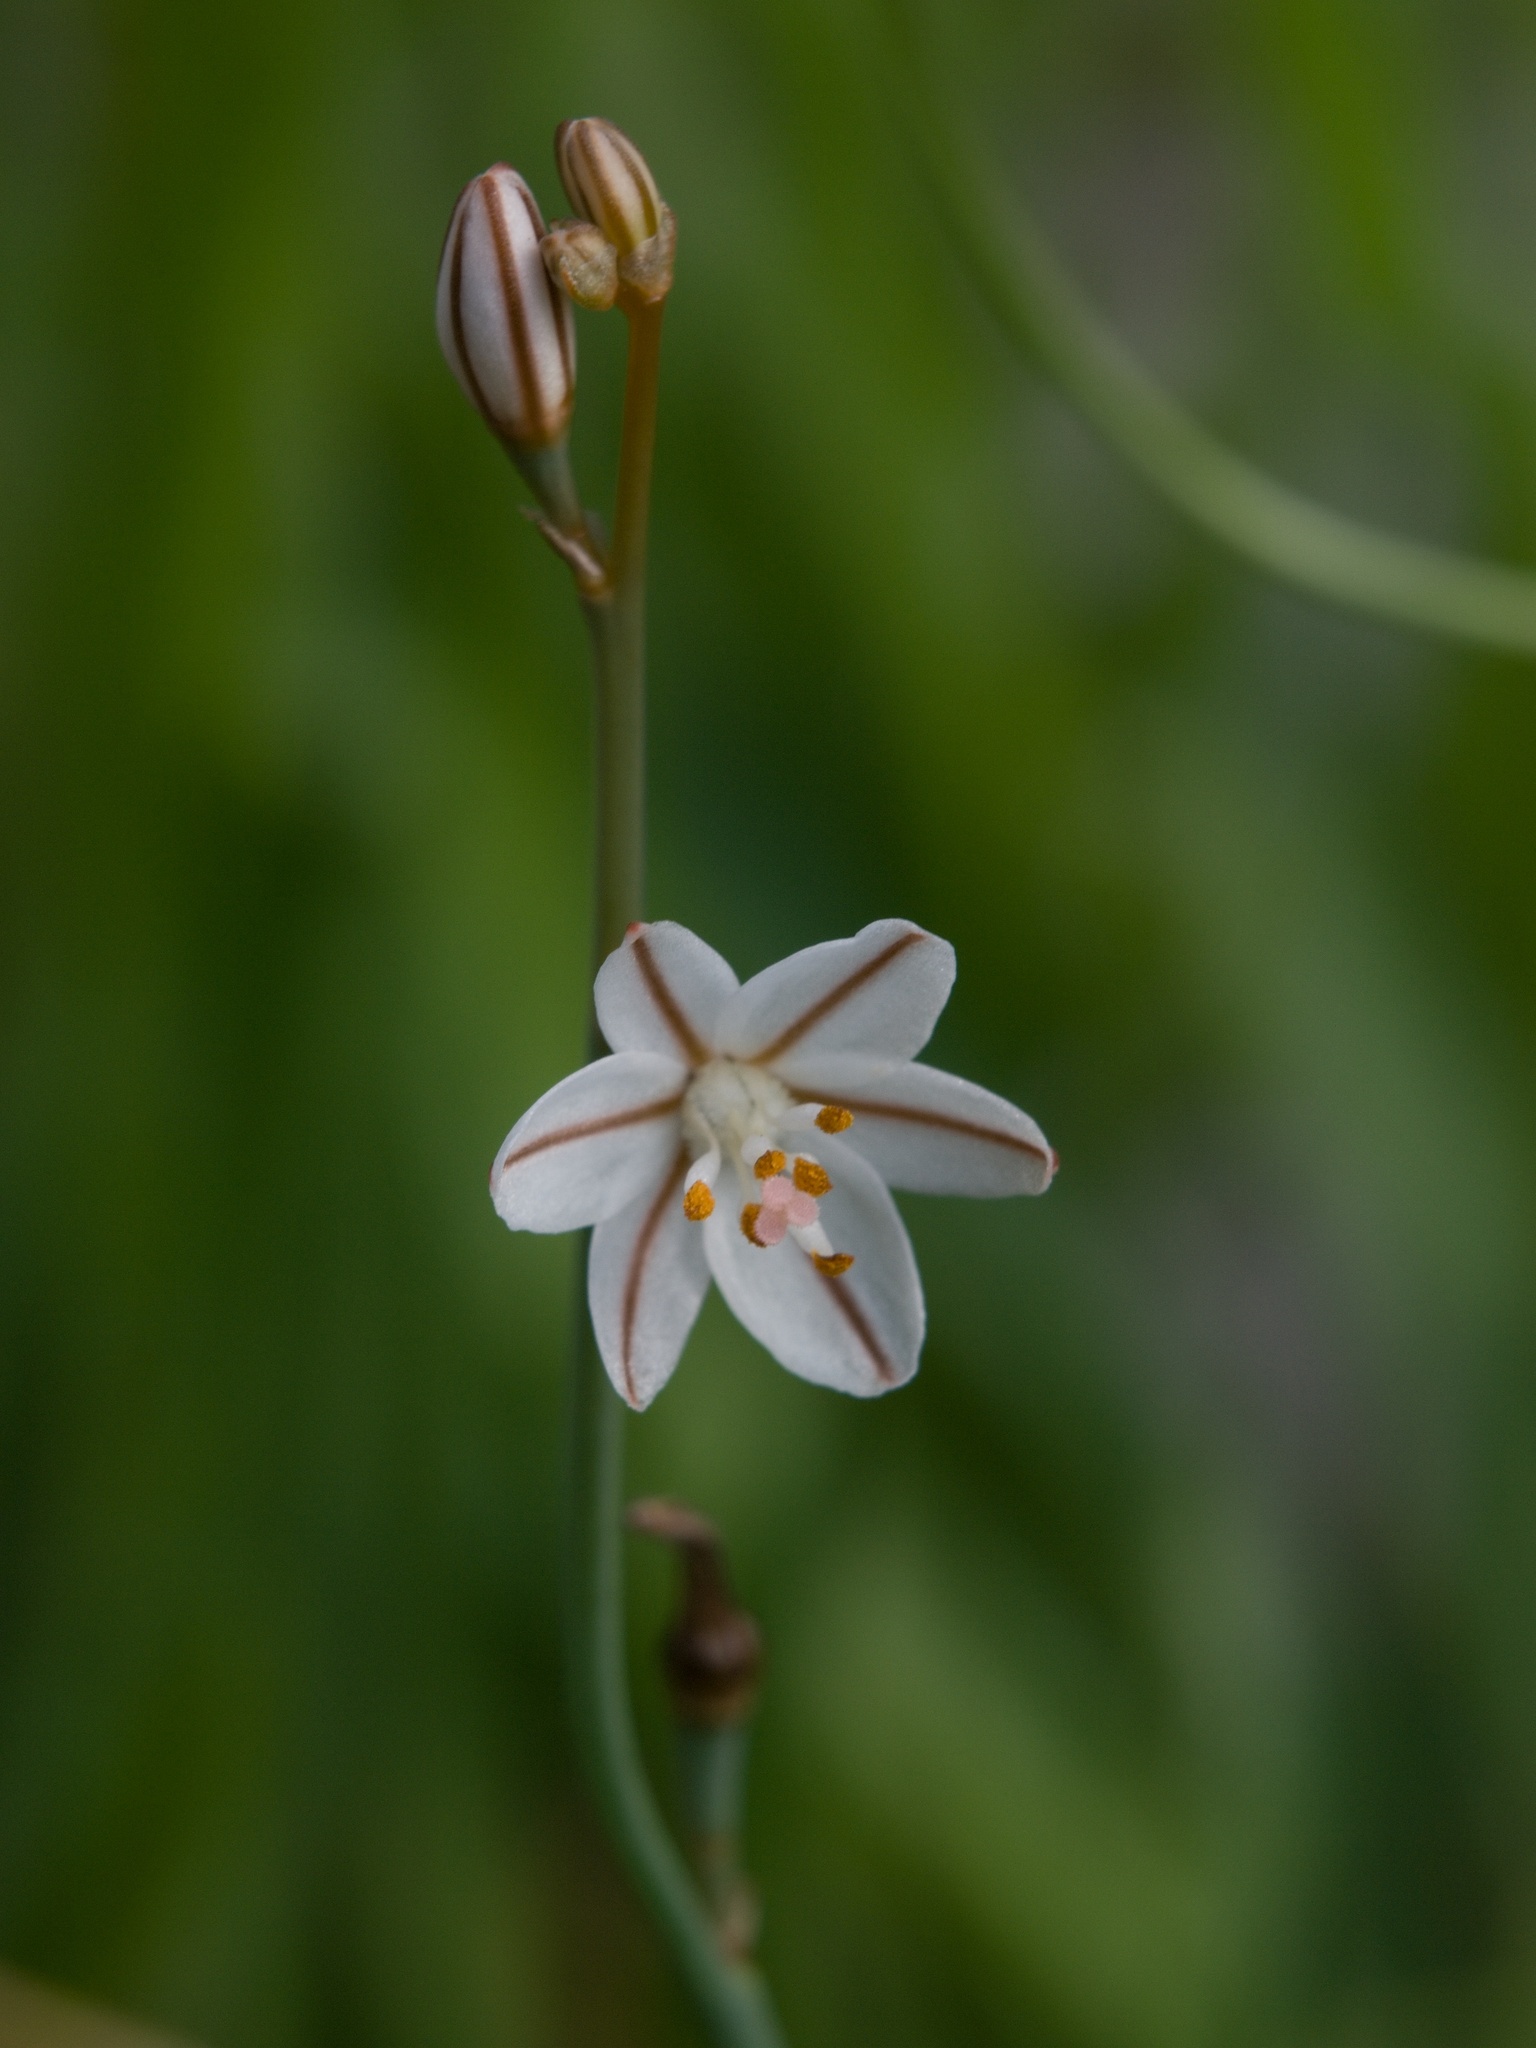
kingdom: Plantae
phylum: Tracheophyta
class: Liliopsida
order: Asparagales
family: Asphodelaceae
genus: Asphodelus
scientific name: Asphodelus fistulosus
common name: Onionweed
